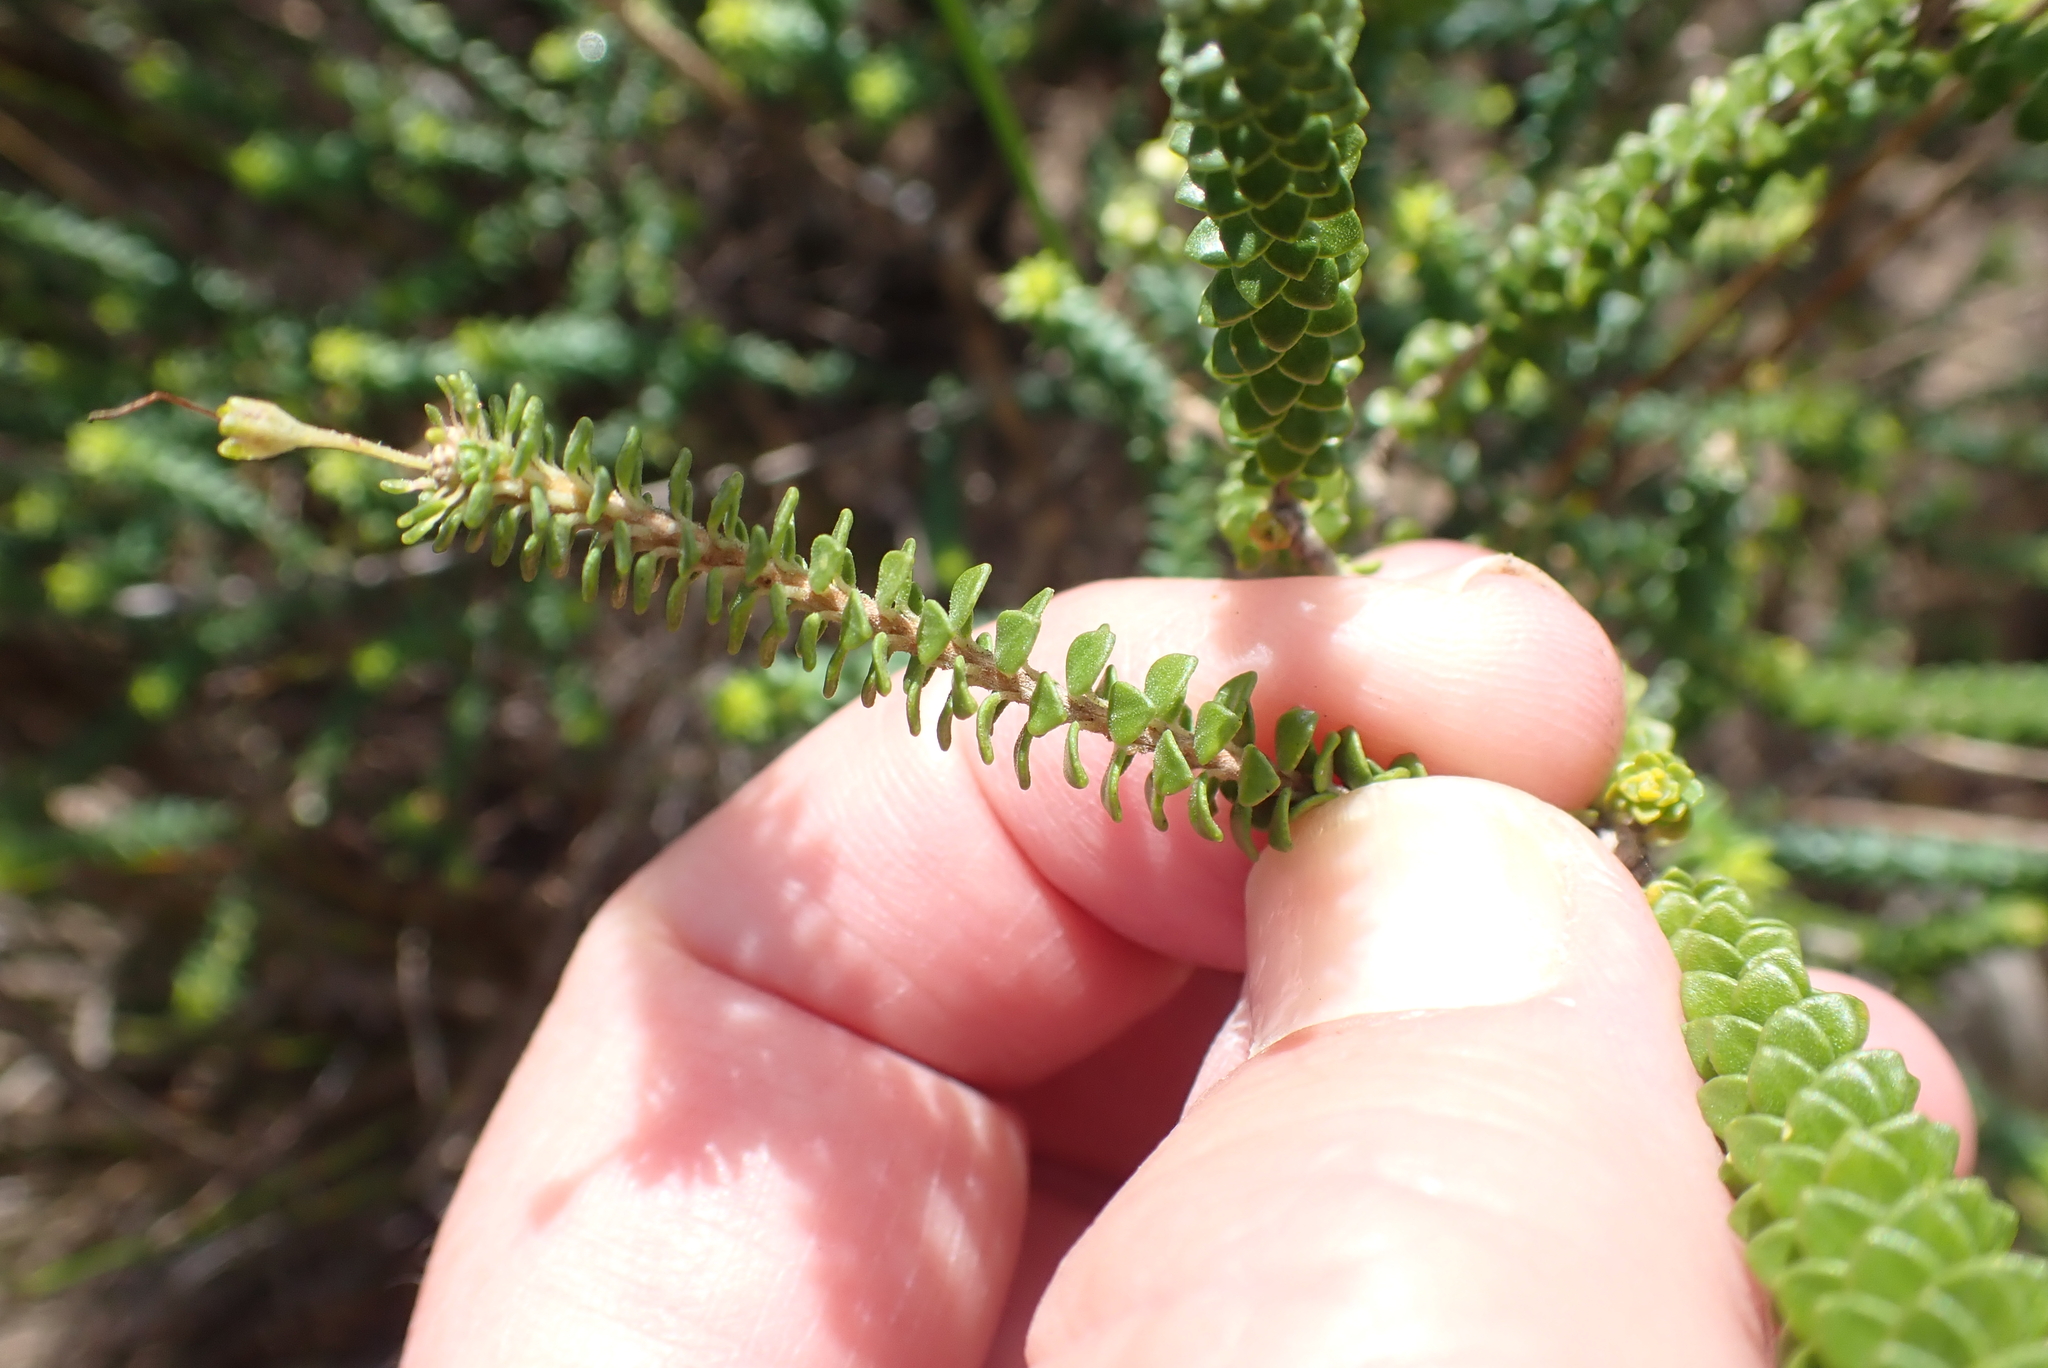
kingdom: Plantae
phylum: Tracheophyta
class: Magnoliopsida
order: Sapindales
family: Rutaceae
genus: Agathosma
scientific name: Agathosma muirii
